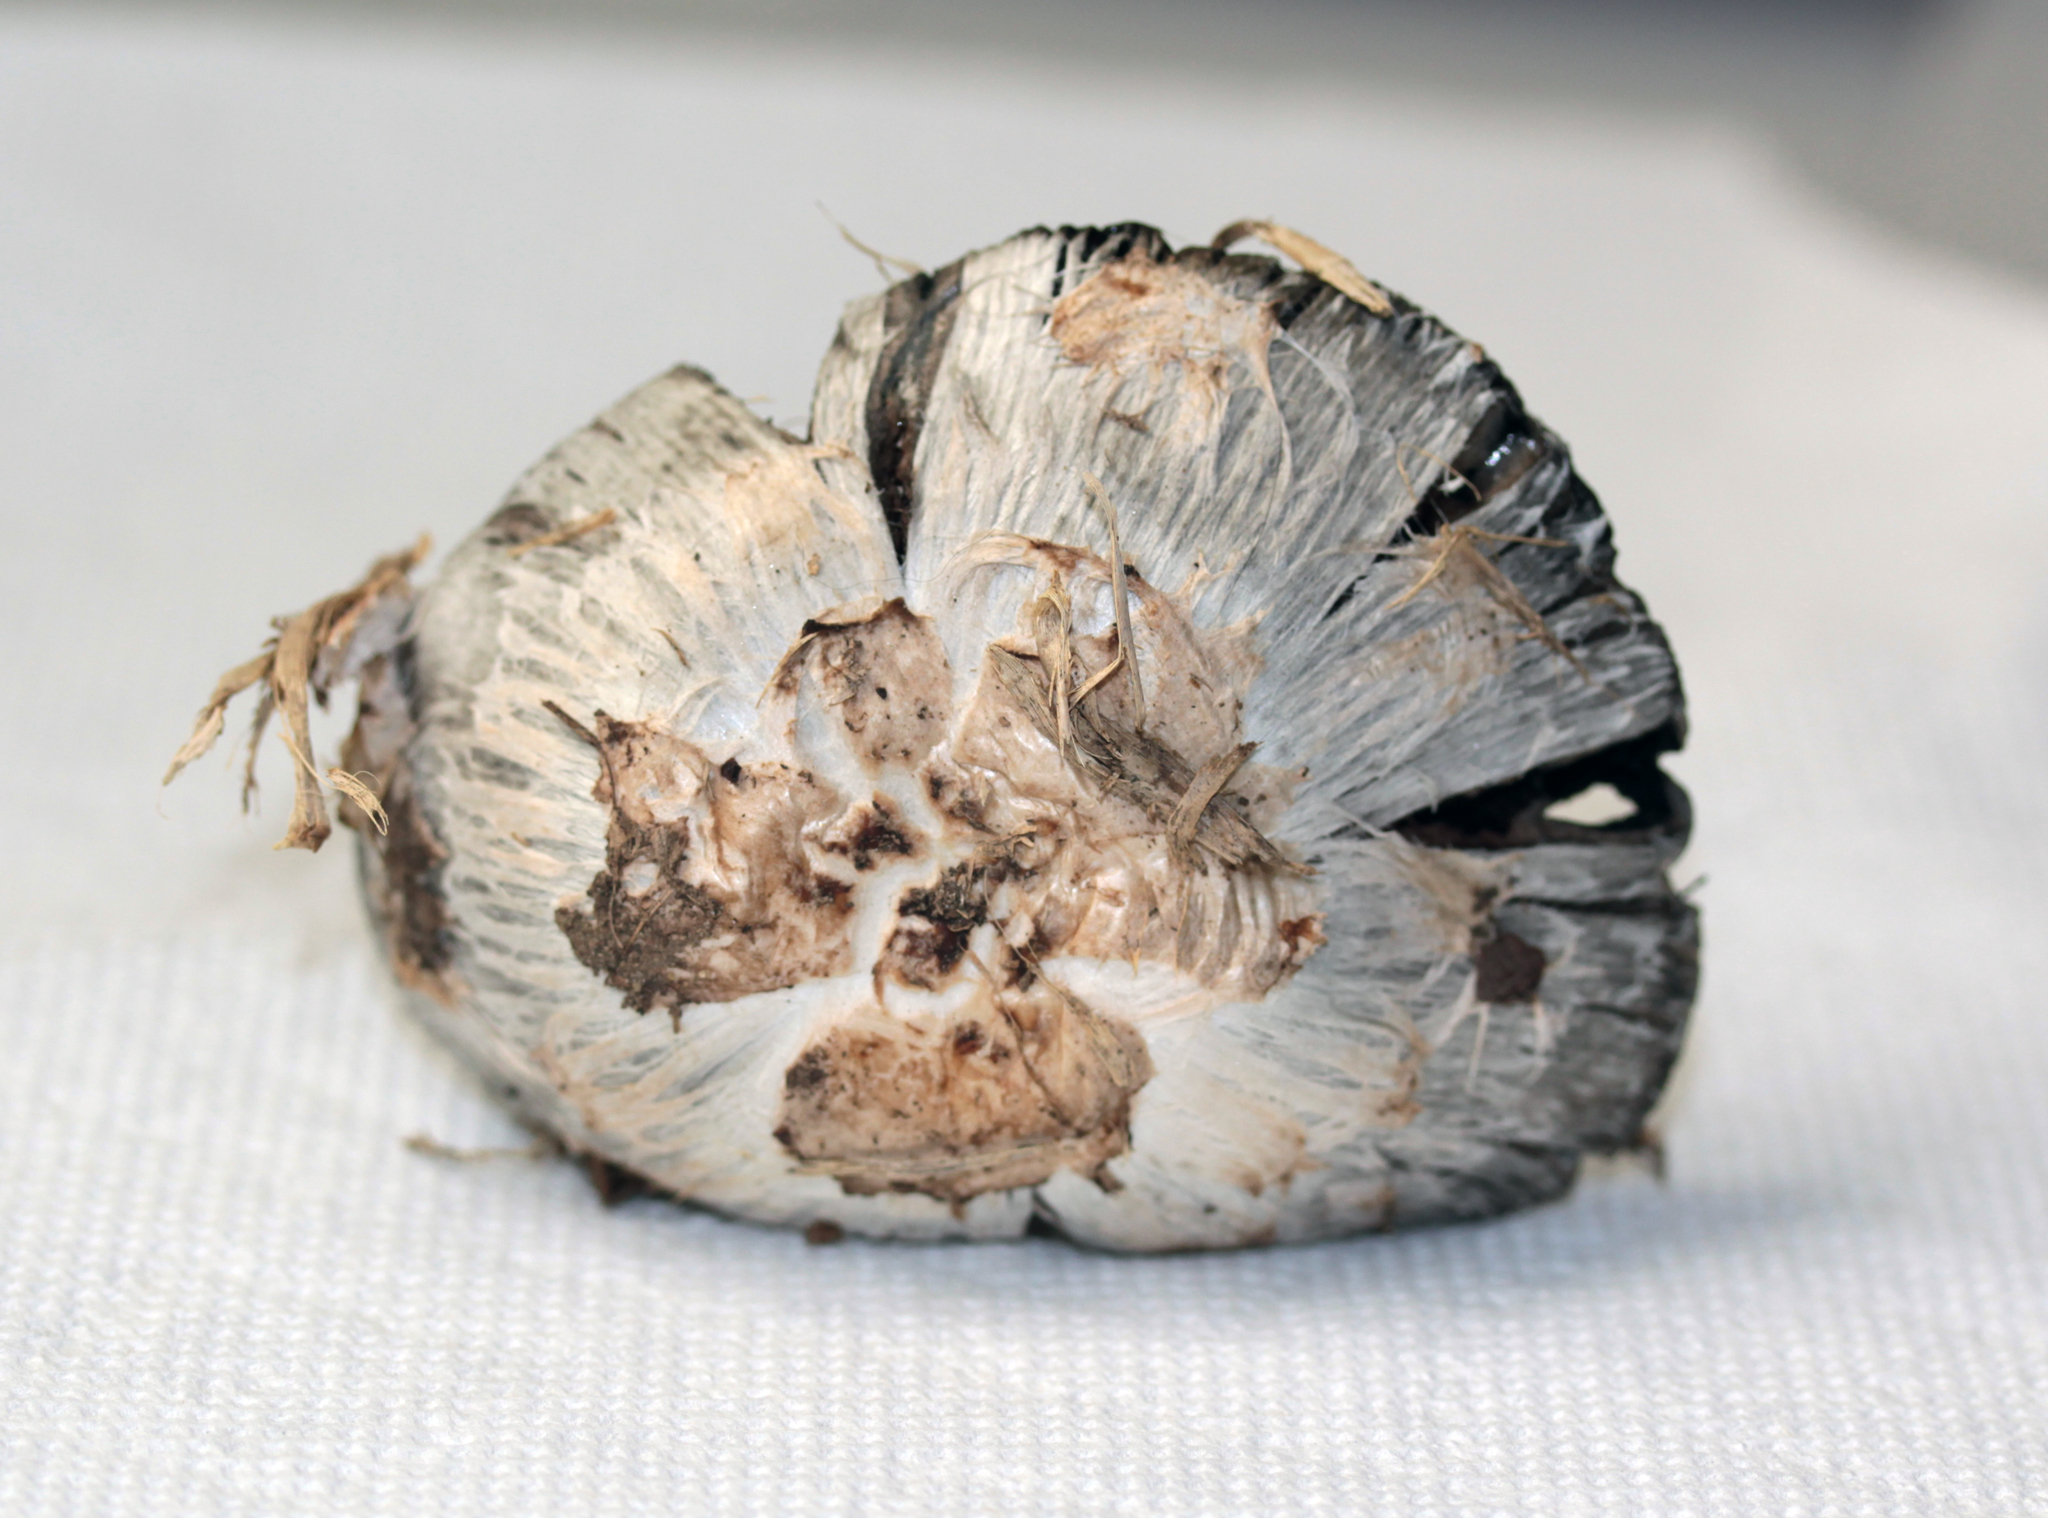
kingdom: Fungi
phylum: Basidiomycota
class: Agaricomycetes
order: Agaricales
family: Agaricaceae
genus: Coprinus
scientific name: Coprinus comatus
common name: Lawyer's wig
